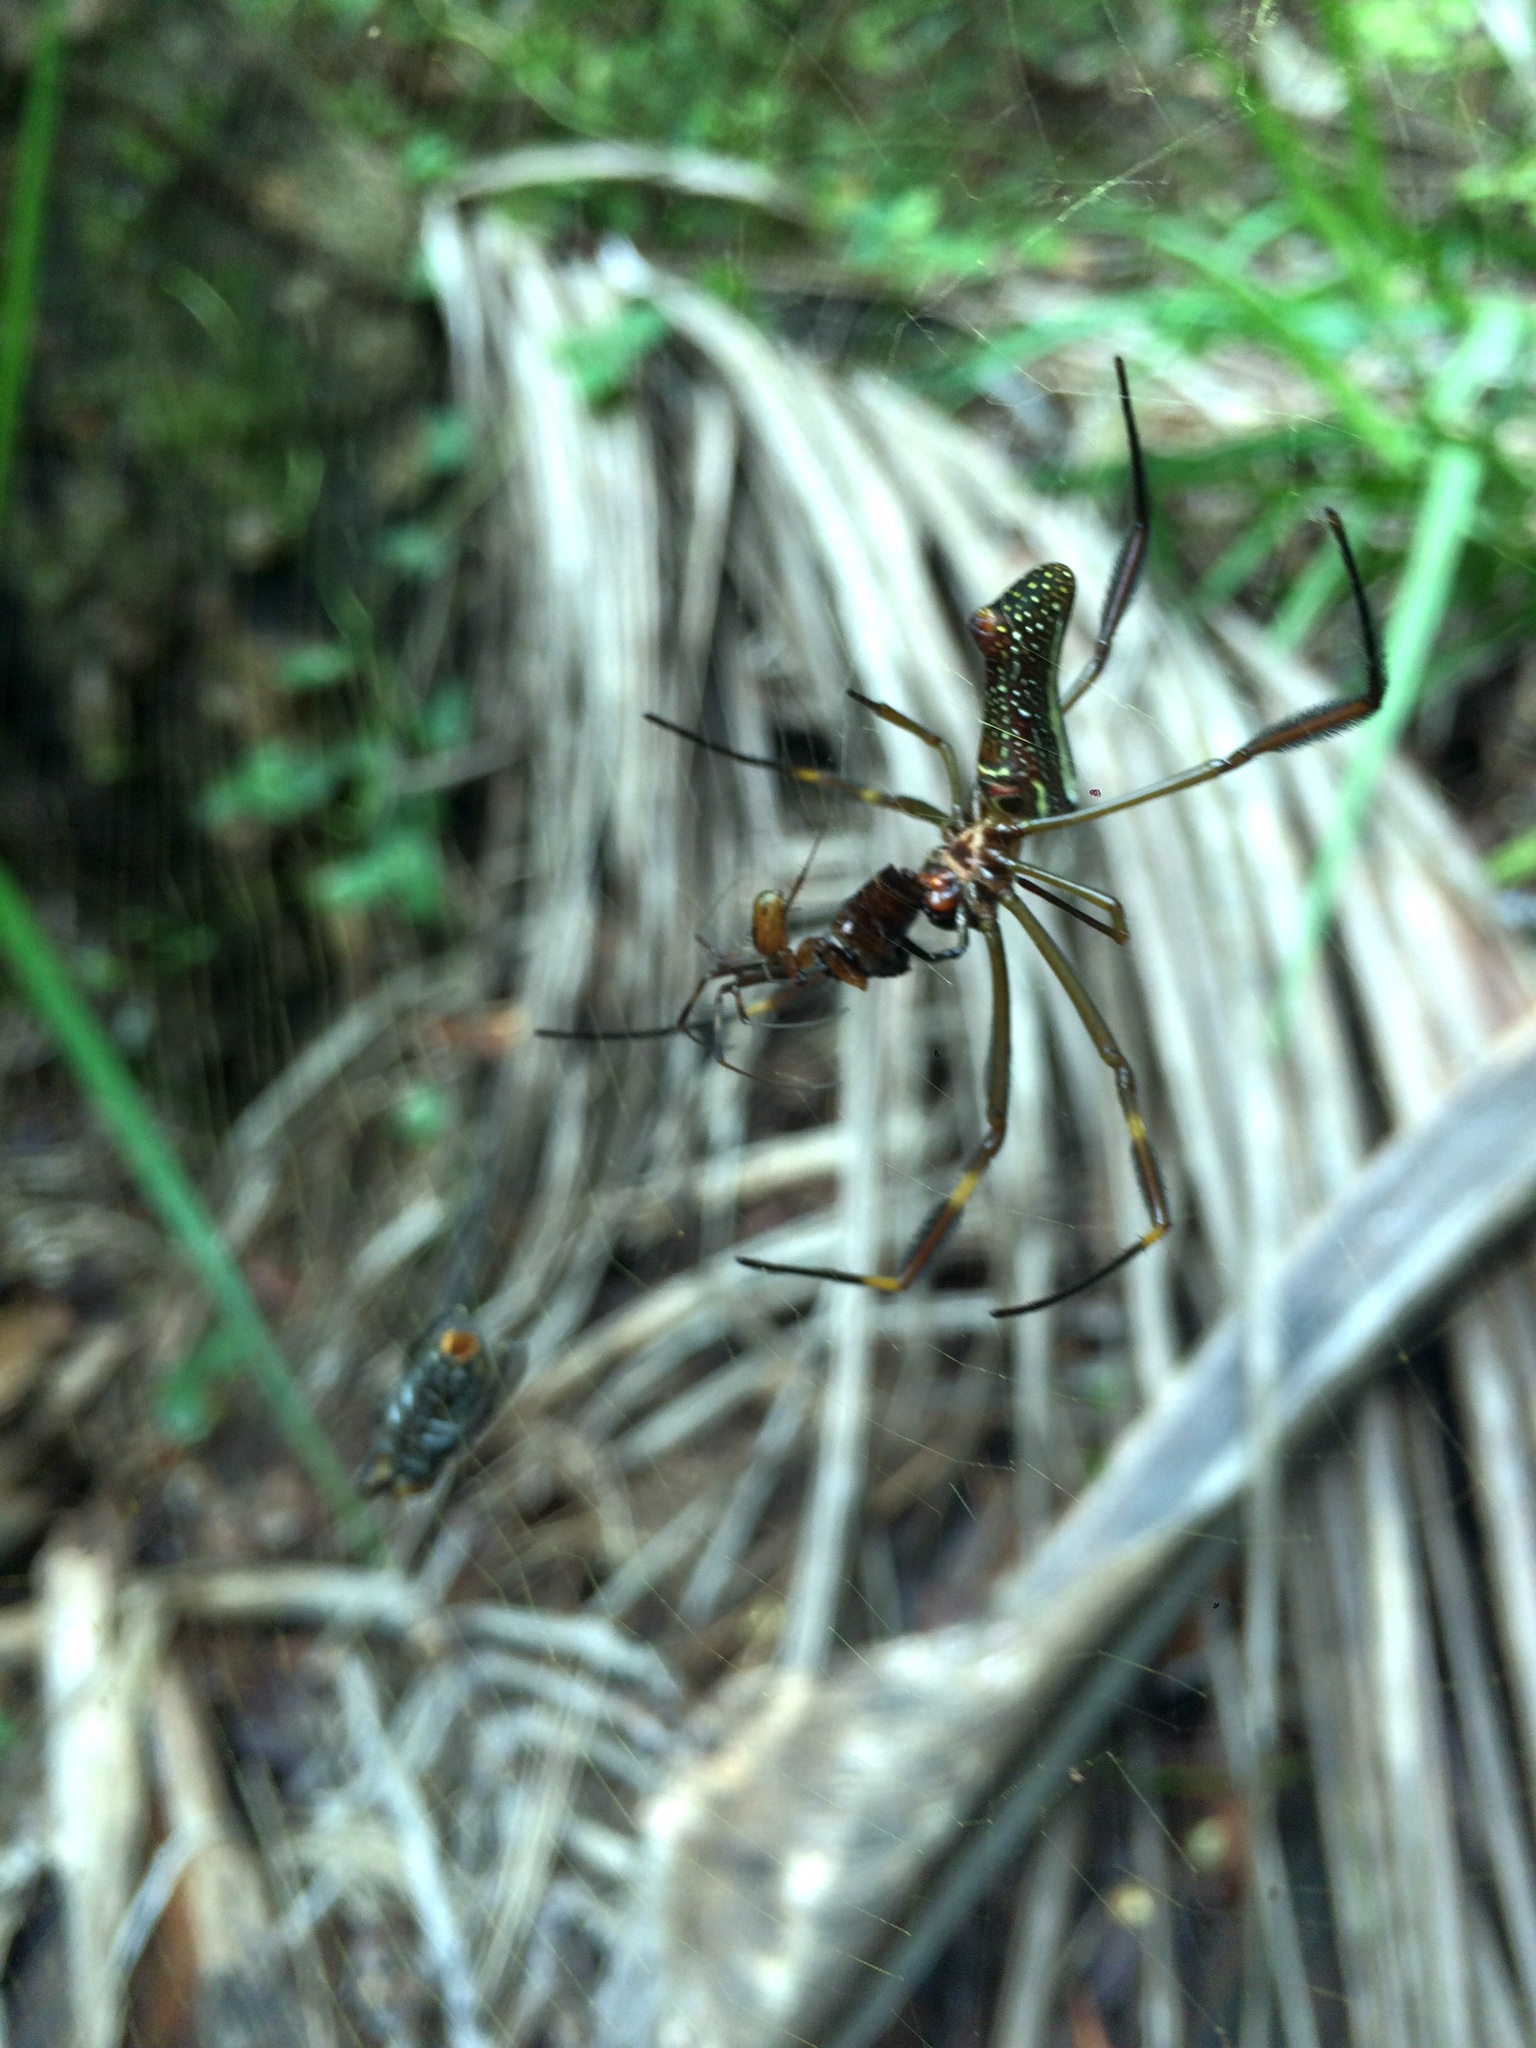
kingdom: Animalia
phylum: Arthropoda
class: Arachnida
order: Araneae
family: Araneidae
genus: Trichonephila
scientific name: Trichonephila clavipes
